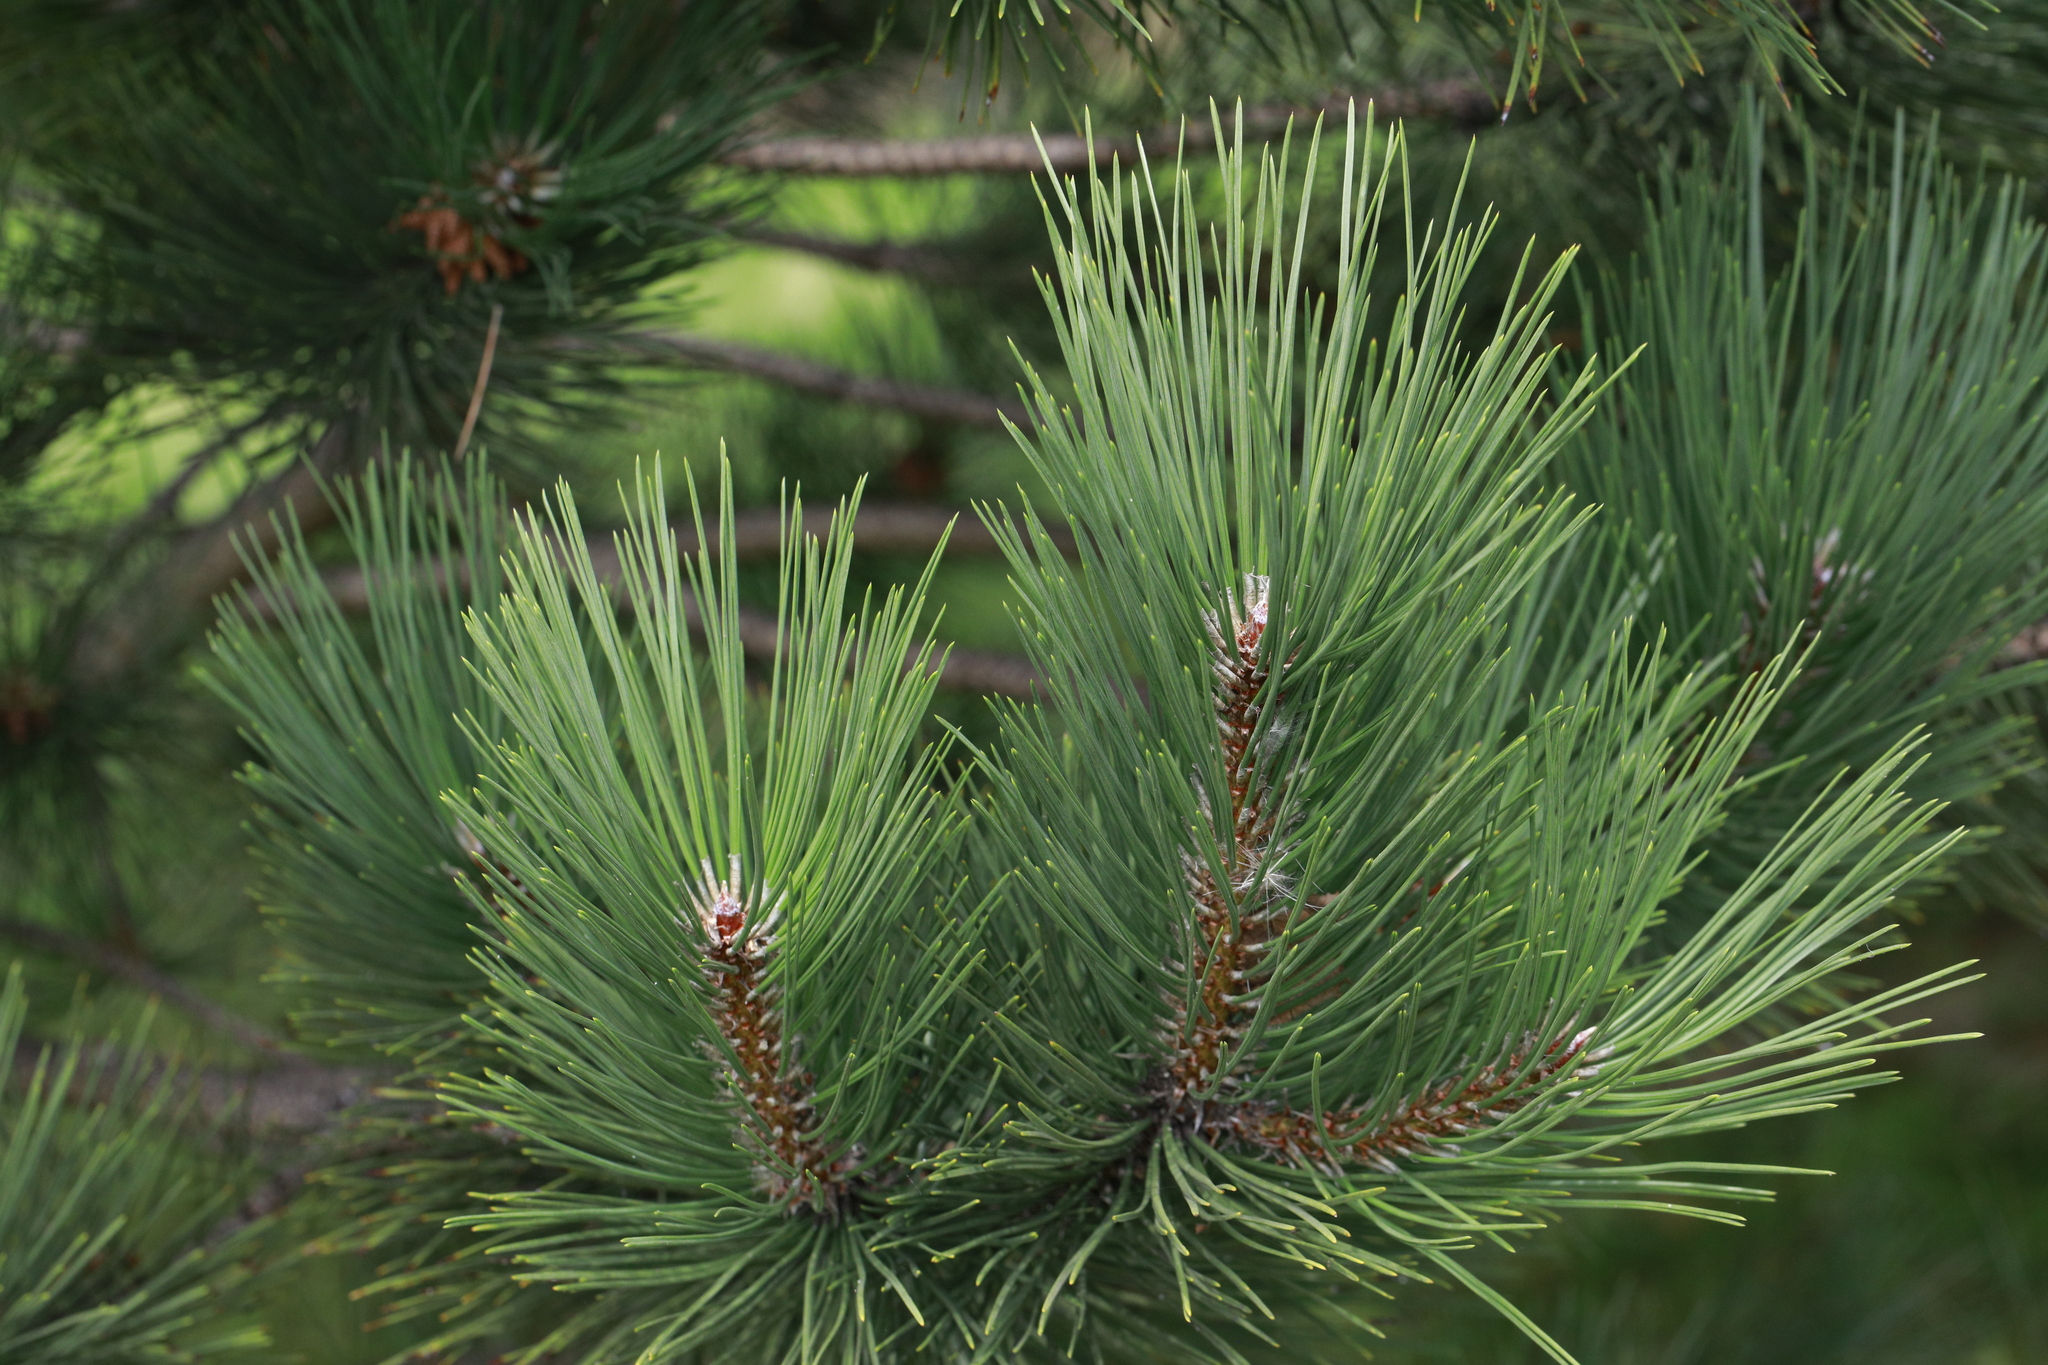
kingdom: Plantae
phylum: Tracheophyta
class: Pinopsida
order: Pinales
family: Pinaceae
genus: Pinus
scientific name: Pinus sylvestris
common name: Scots pine
